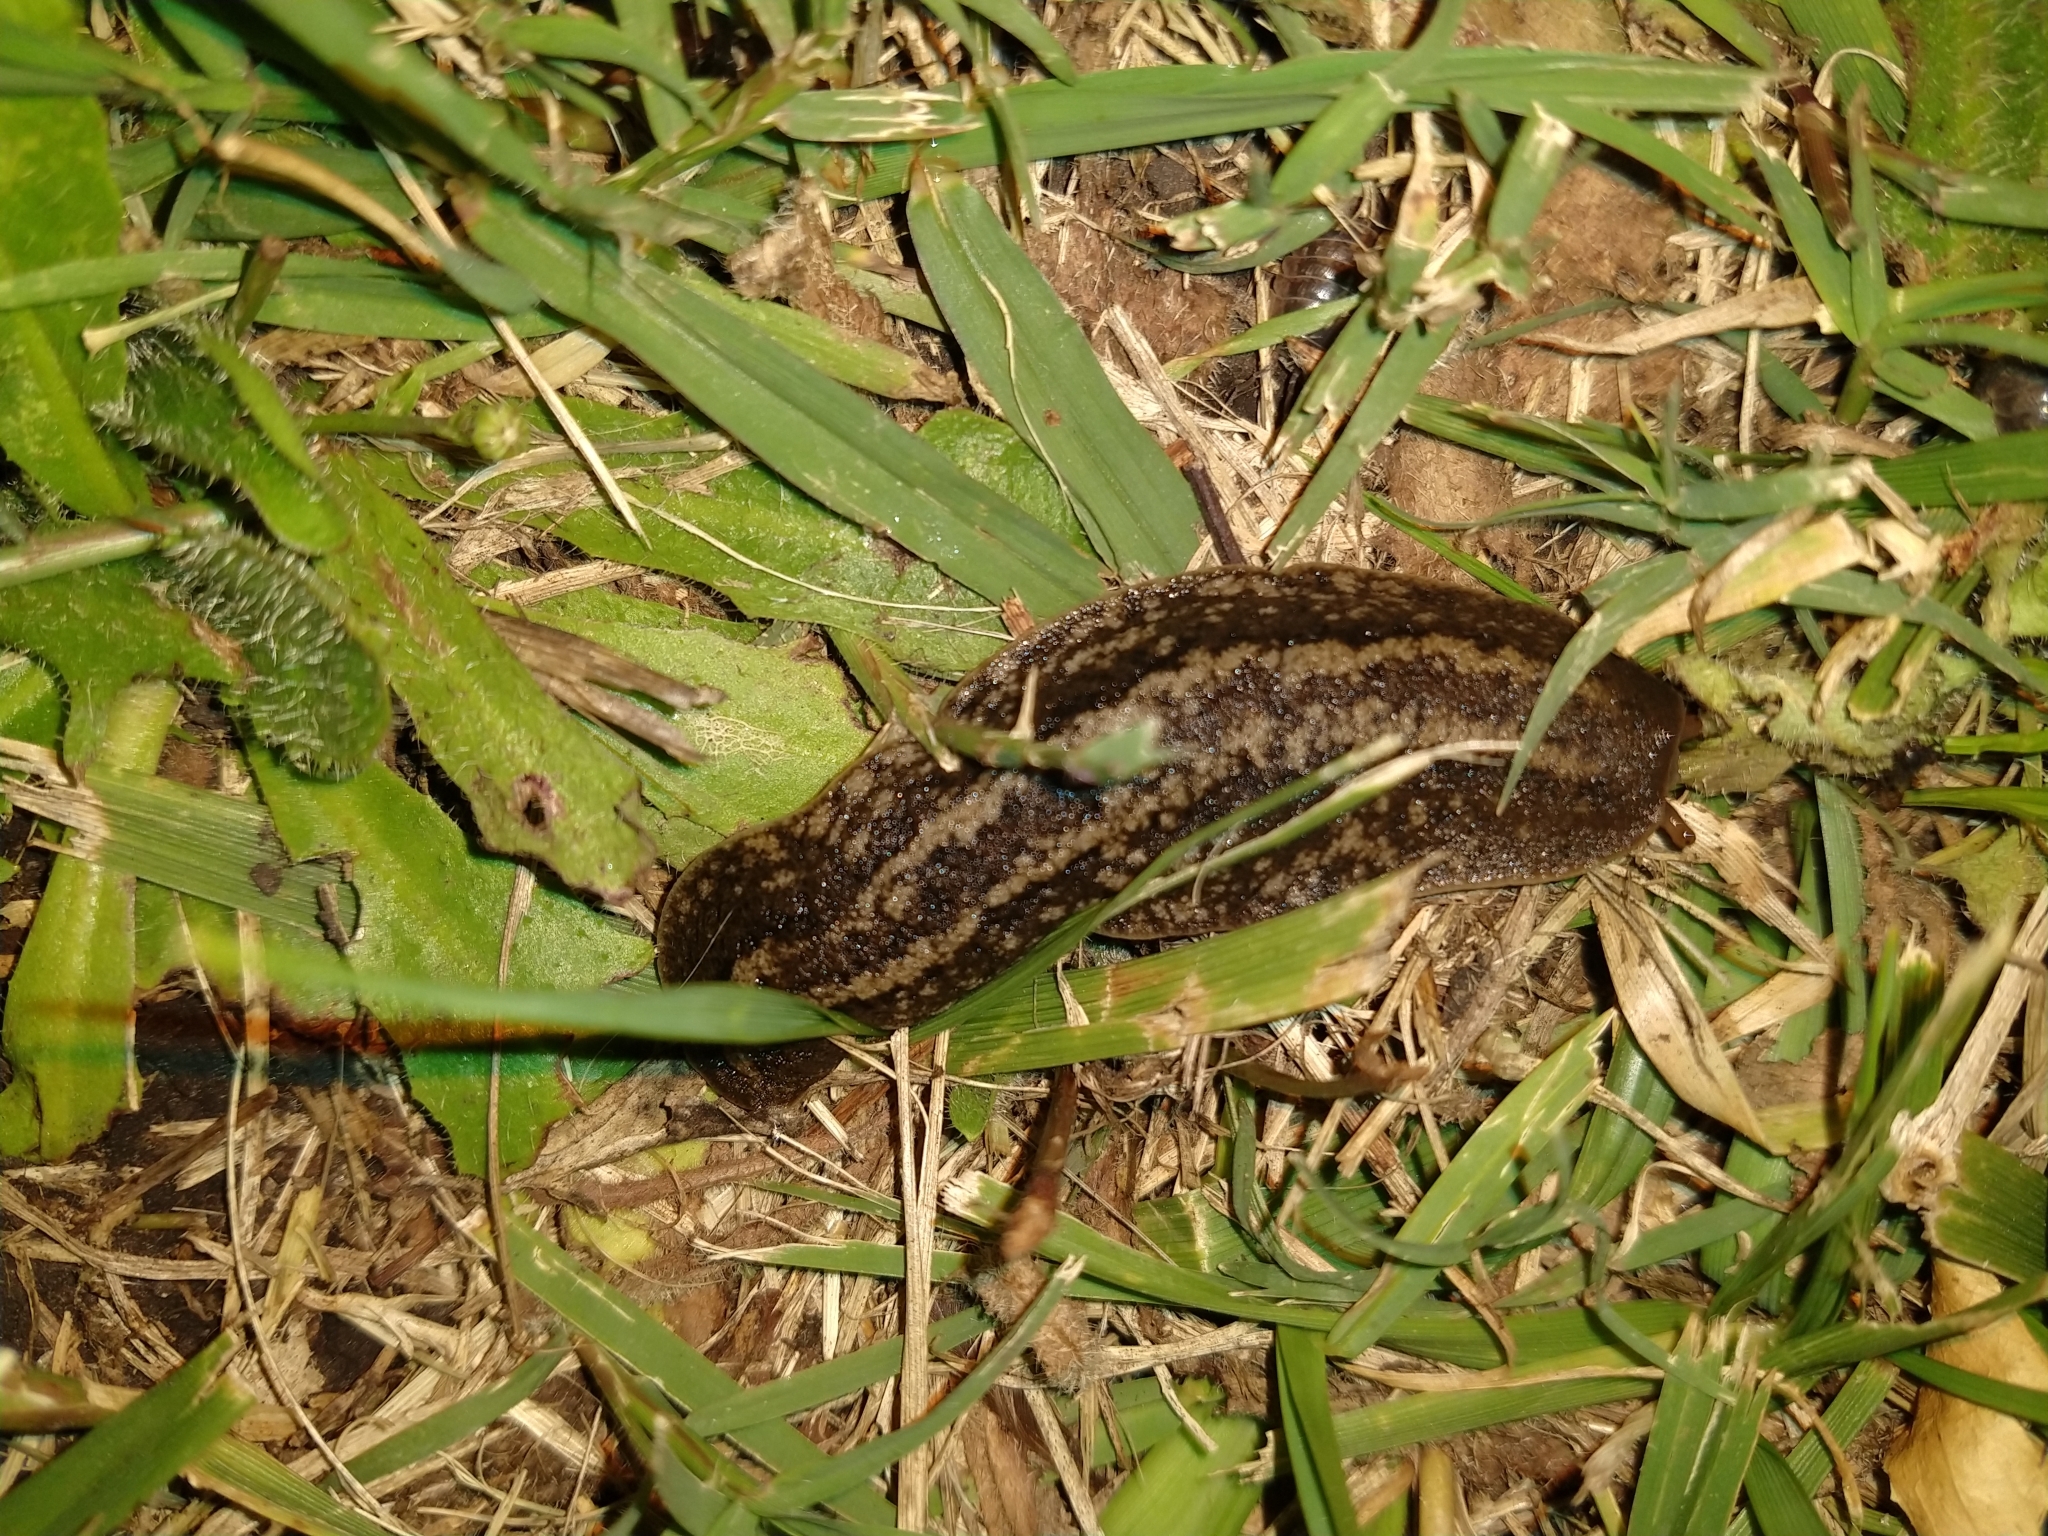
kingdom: Animalia
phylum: Mollusca
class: Gastropoda
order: Systellommatophora
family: Veronicellidae
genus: Phyllocaulis
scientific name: Phyllocaulis soleiformis
